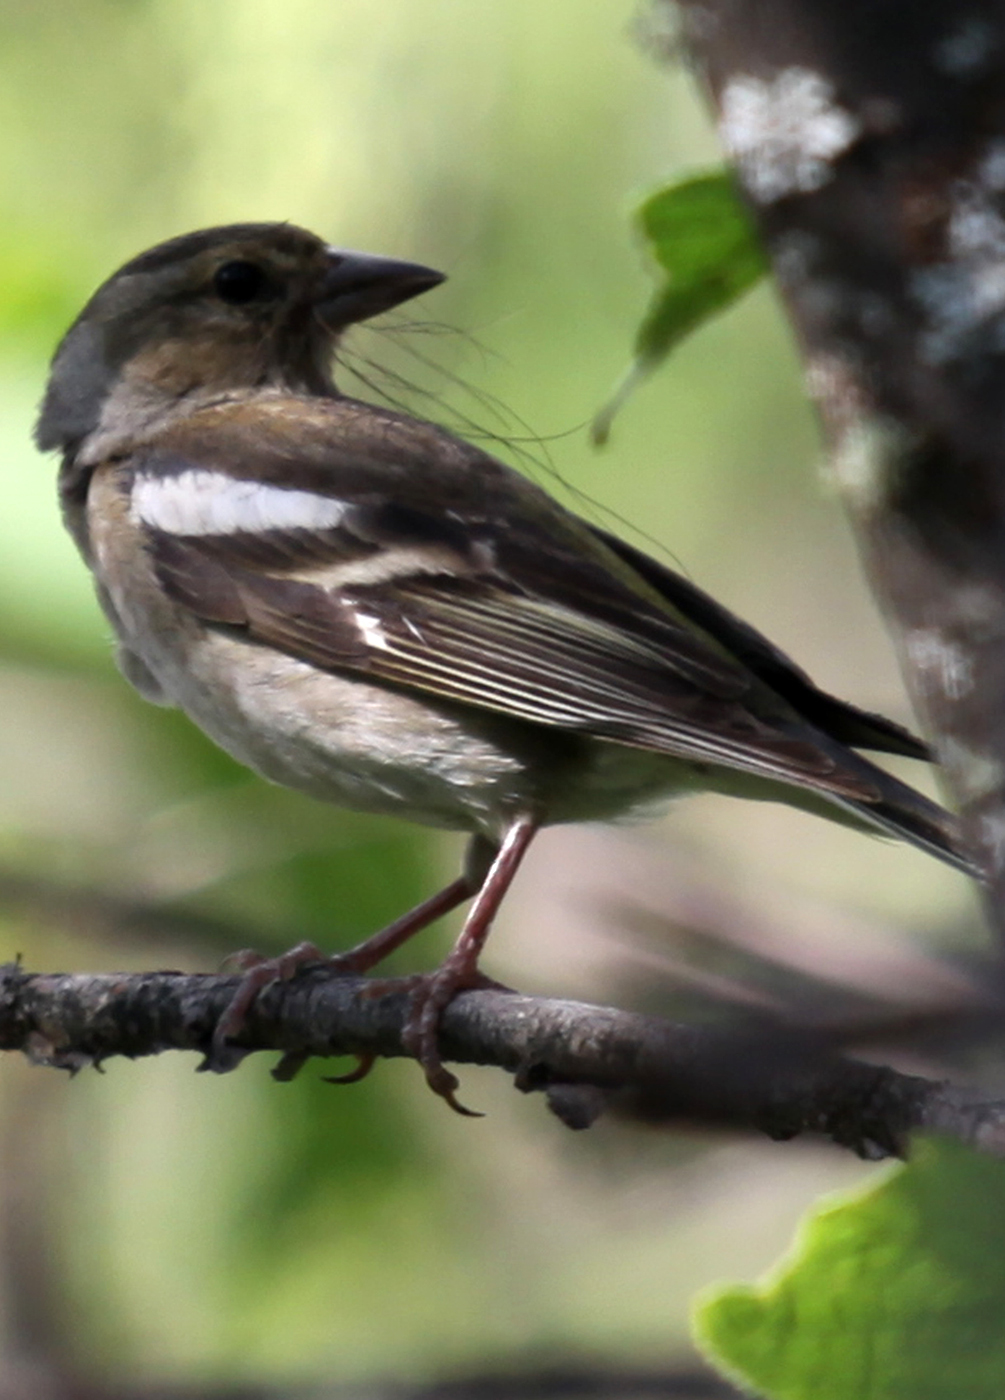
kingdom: Animalia
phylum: Chordata
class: Aves
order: Passeriformes
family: Fringillidae
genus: Fringilla
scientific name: Fringilla coelebs
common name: Common chaffinch
